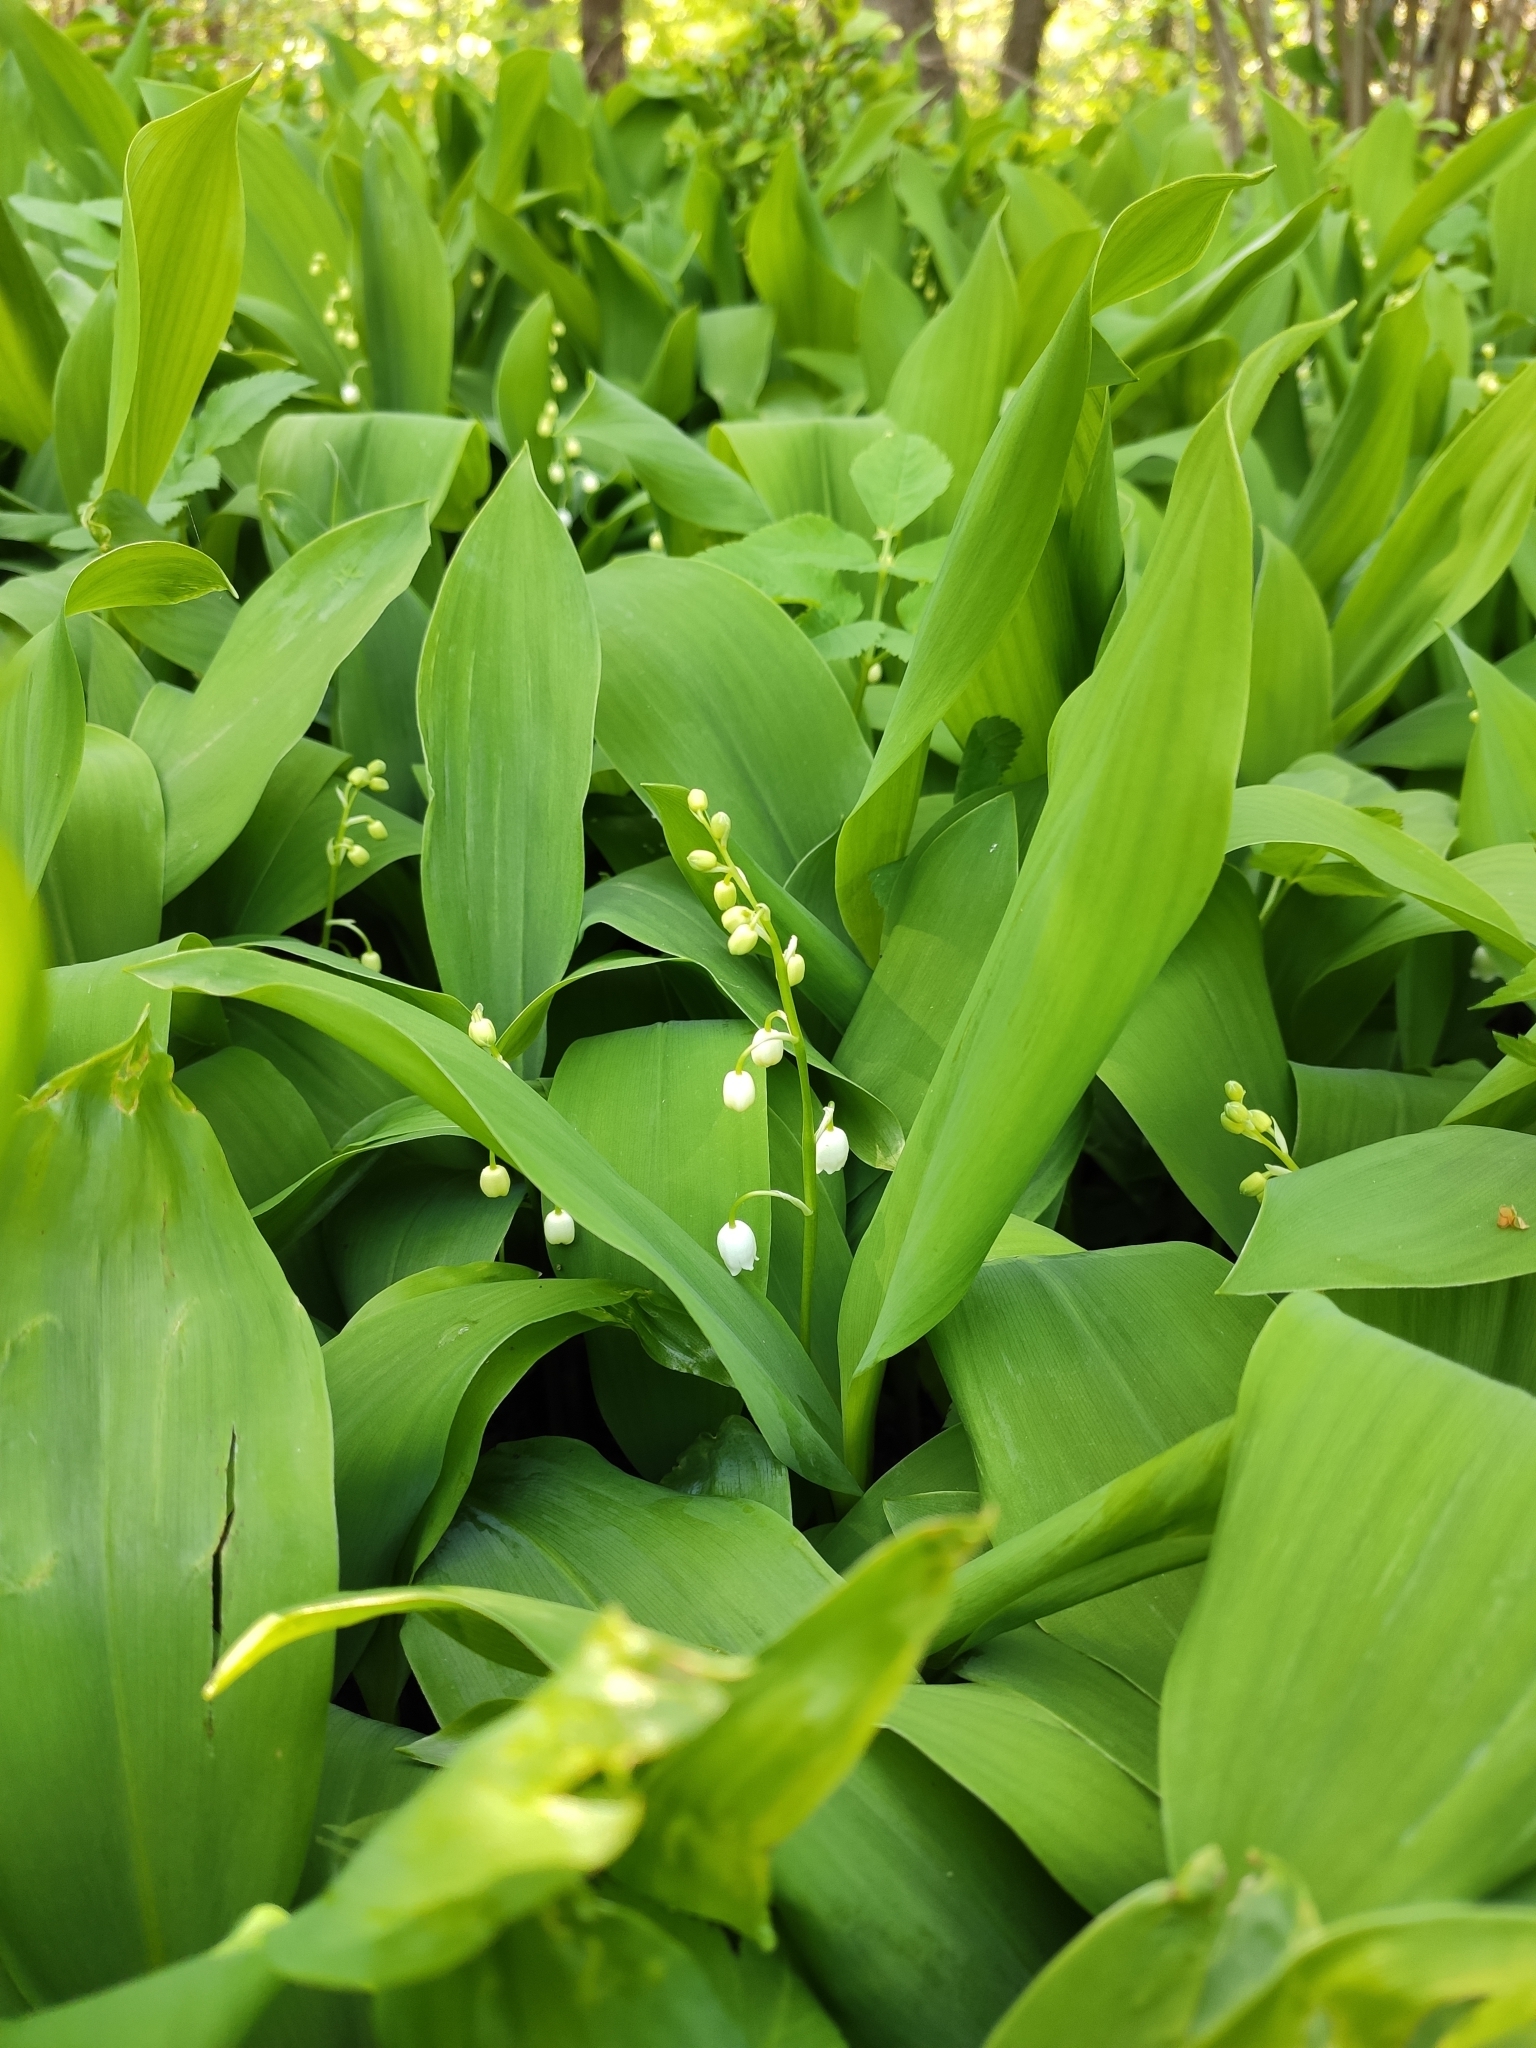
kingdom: Plantae
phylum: Tracheophyta
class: Liliopsida
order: Asparagales
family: Asparagaceae
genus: Convallaria
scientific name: Convallaria majalis
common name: Lily-of-the-valley
